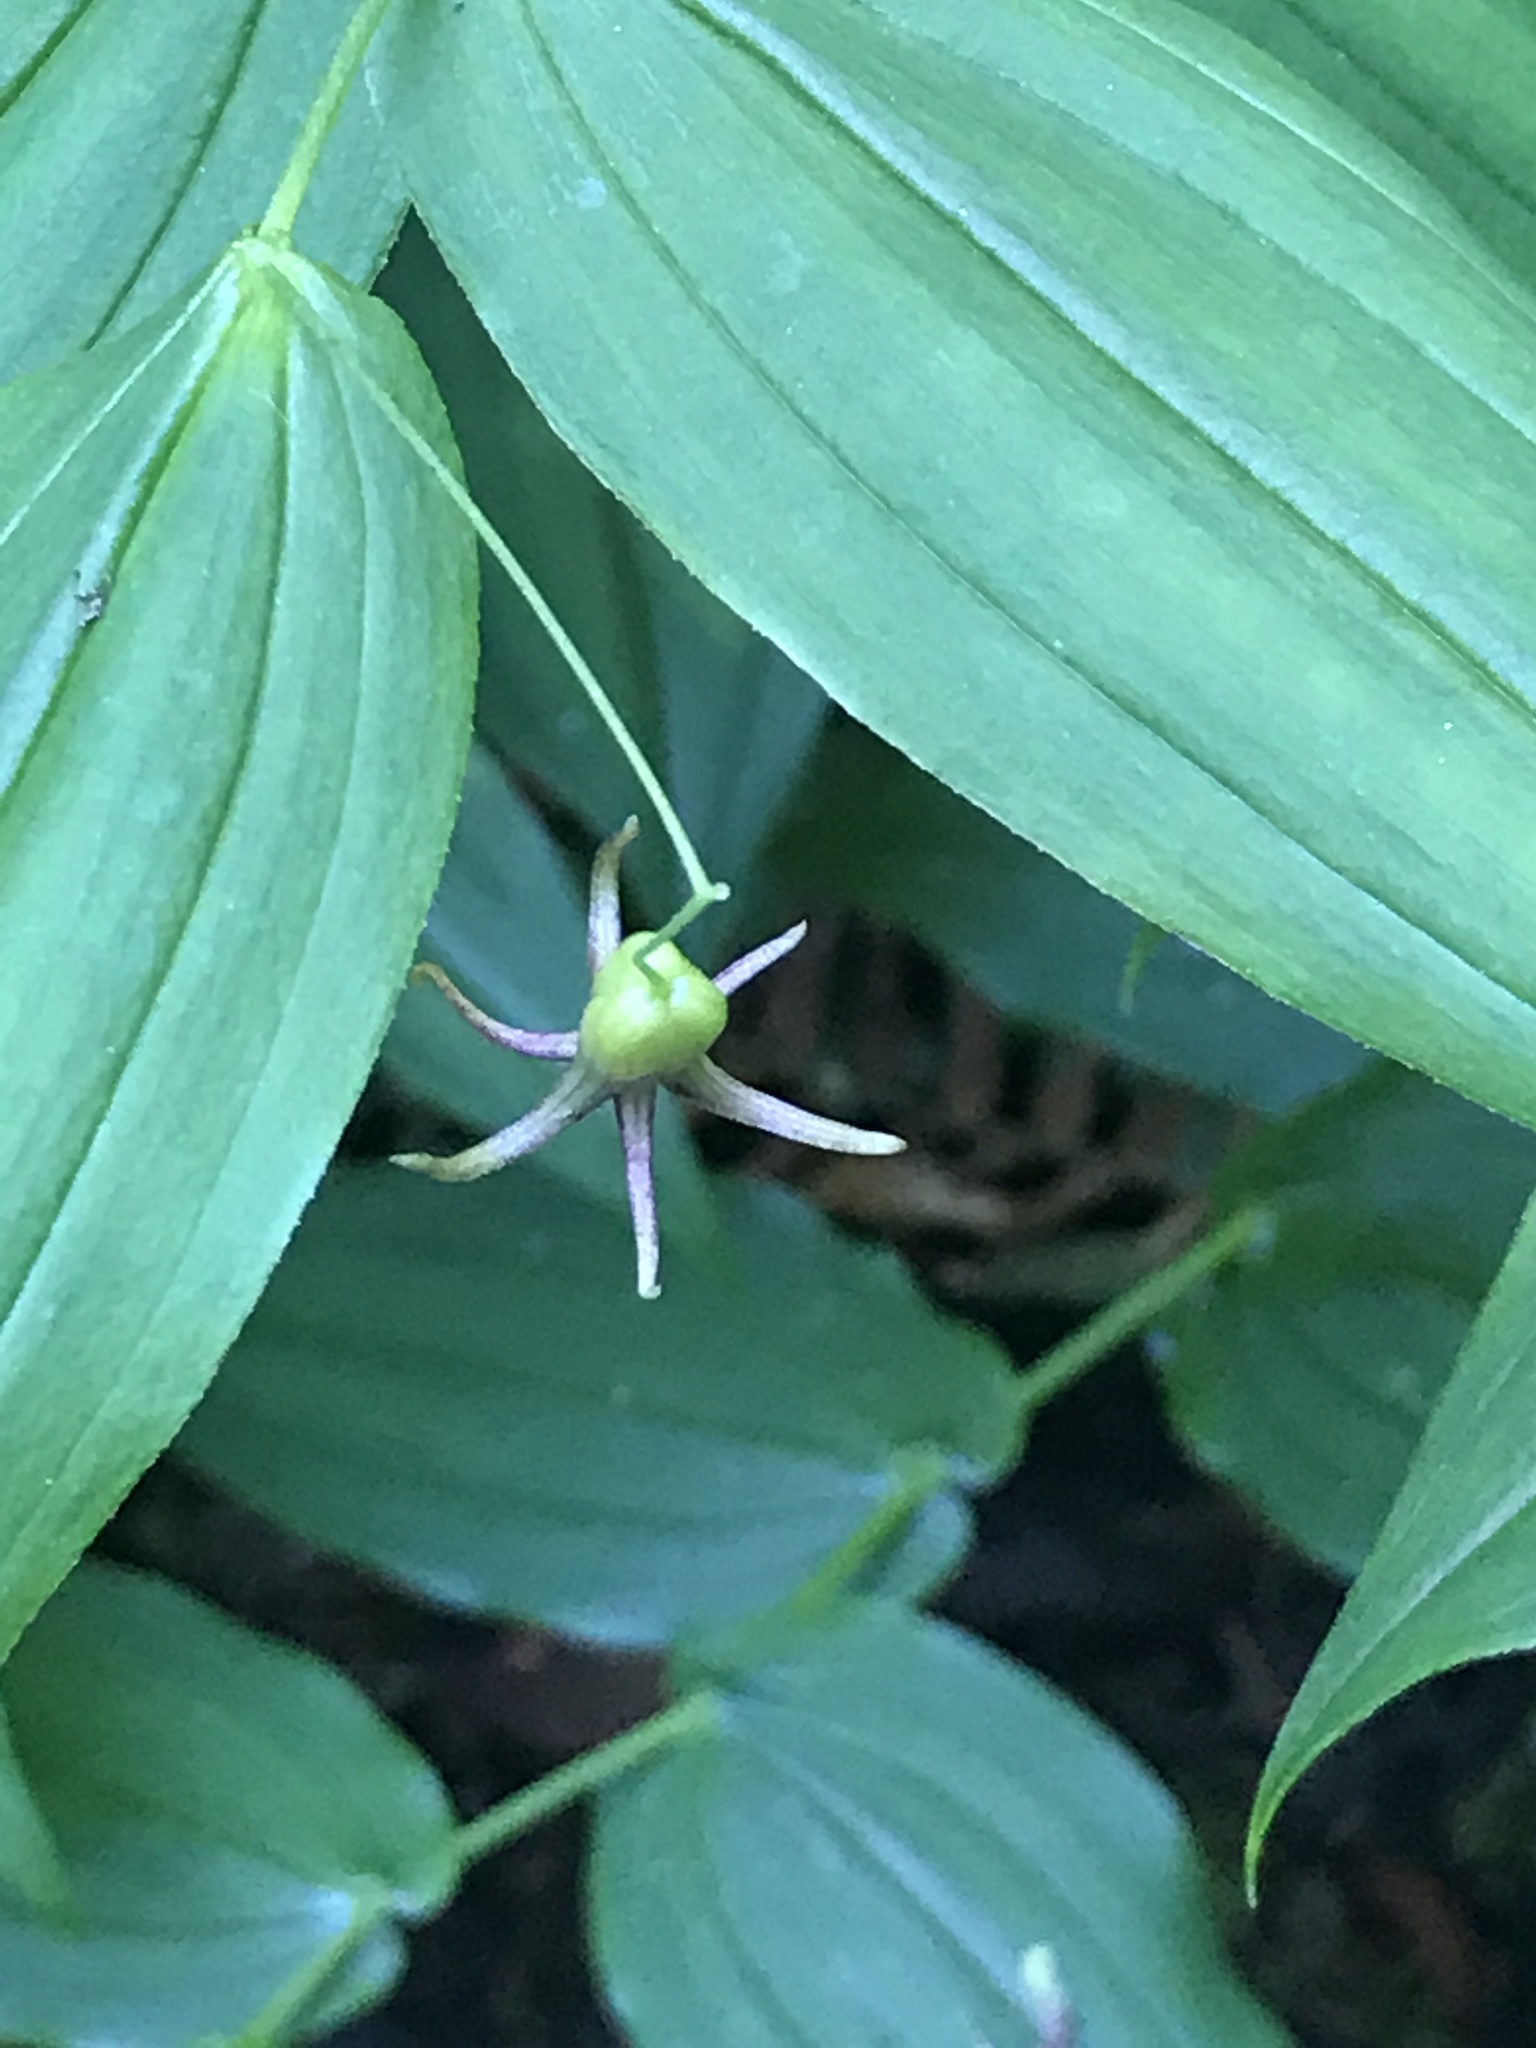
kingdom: Plantae
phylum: Tracheophyta
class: Liliopsida
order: Liliales
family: Liliaceae
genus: Streptopus
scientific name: Streptopus amplexifolius
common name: Clasp twisted stalk
